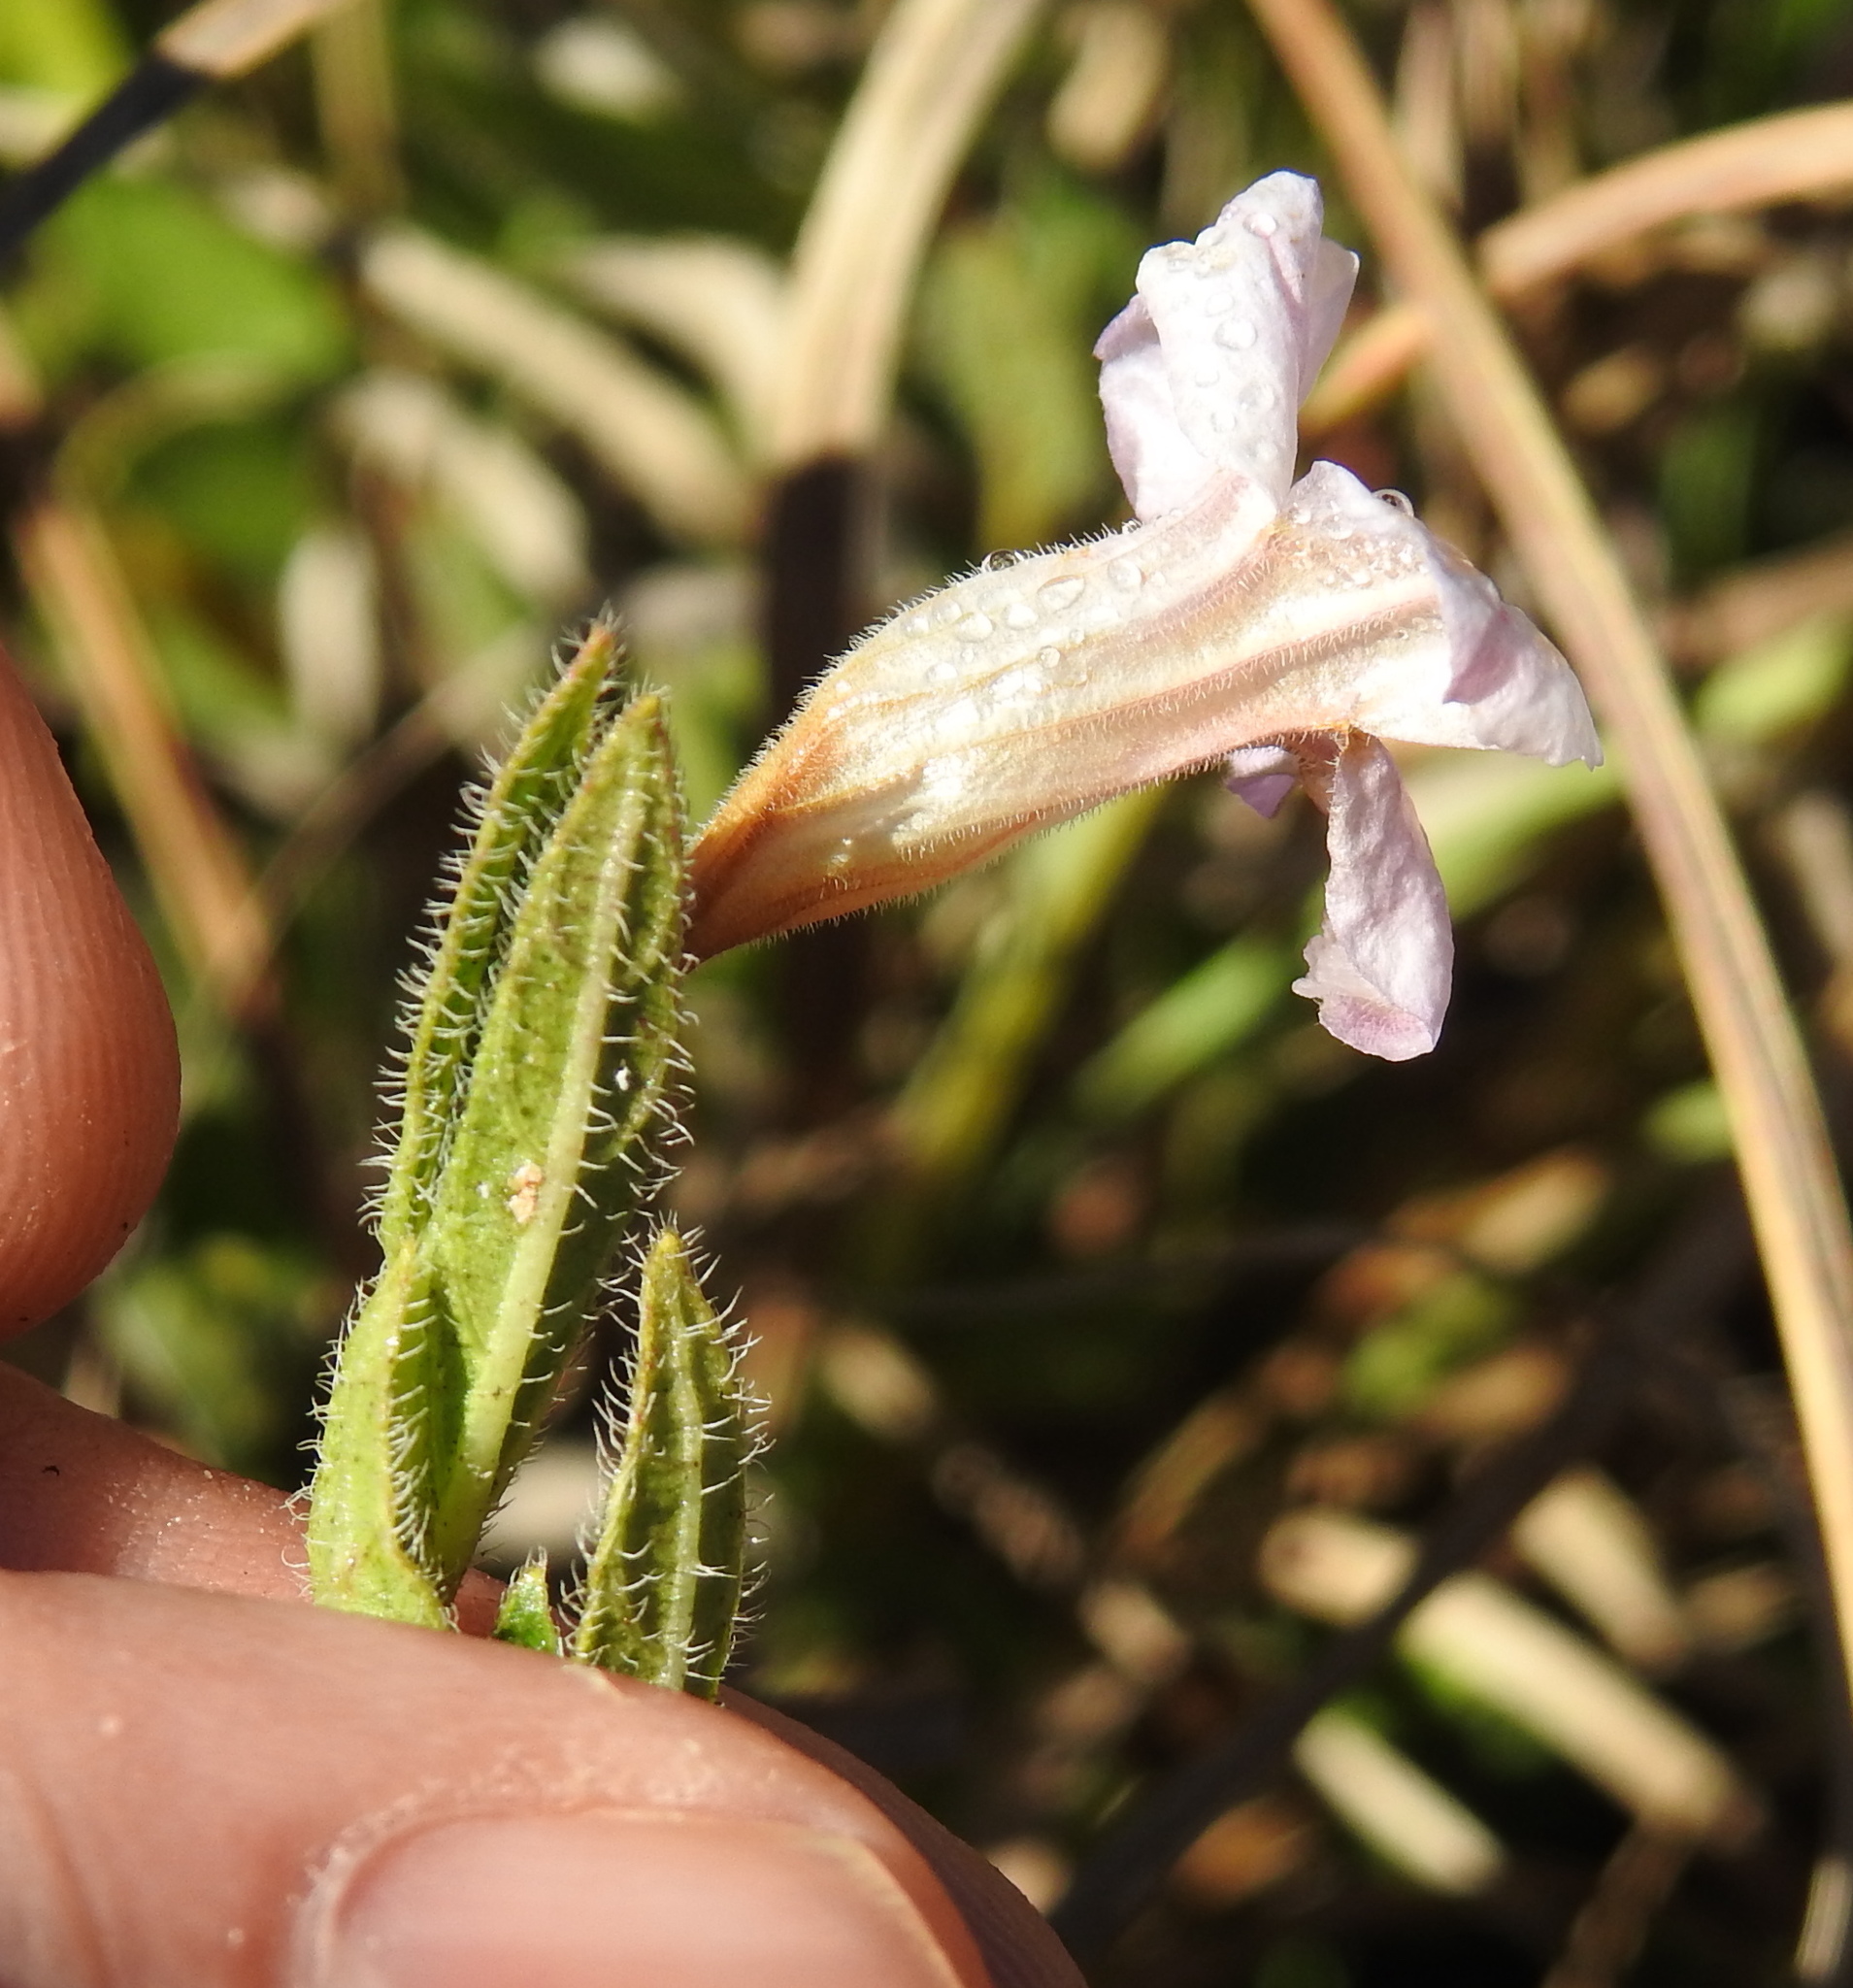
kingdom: Plantae
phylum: Tracheophyta
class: Magnoliopsida
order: Lamiales
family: Acanthaceae
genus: Ruellia
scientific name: Ruellia patula
